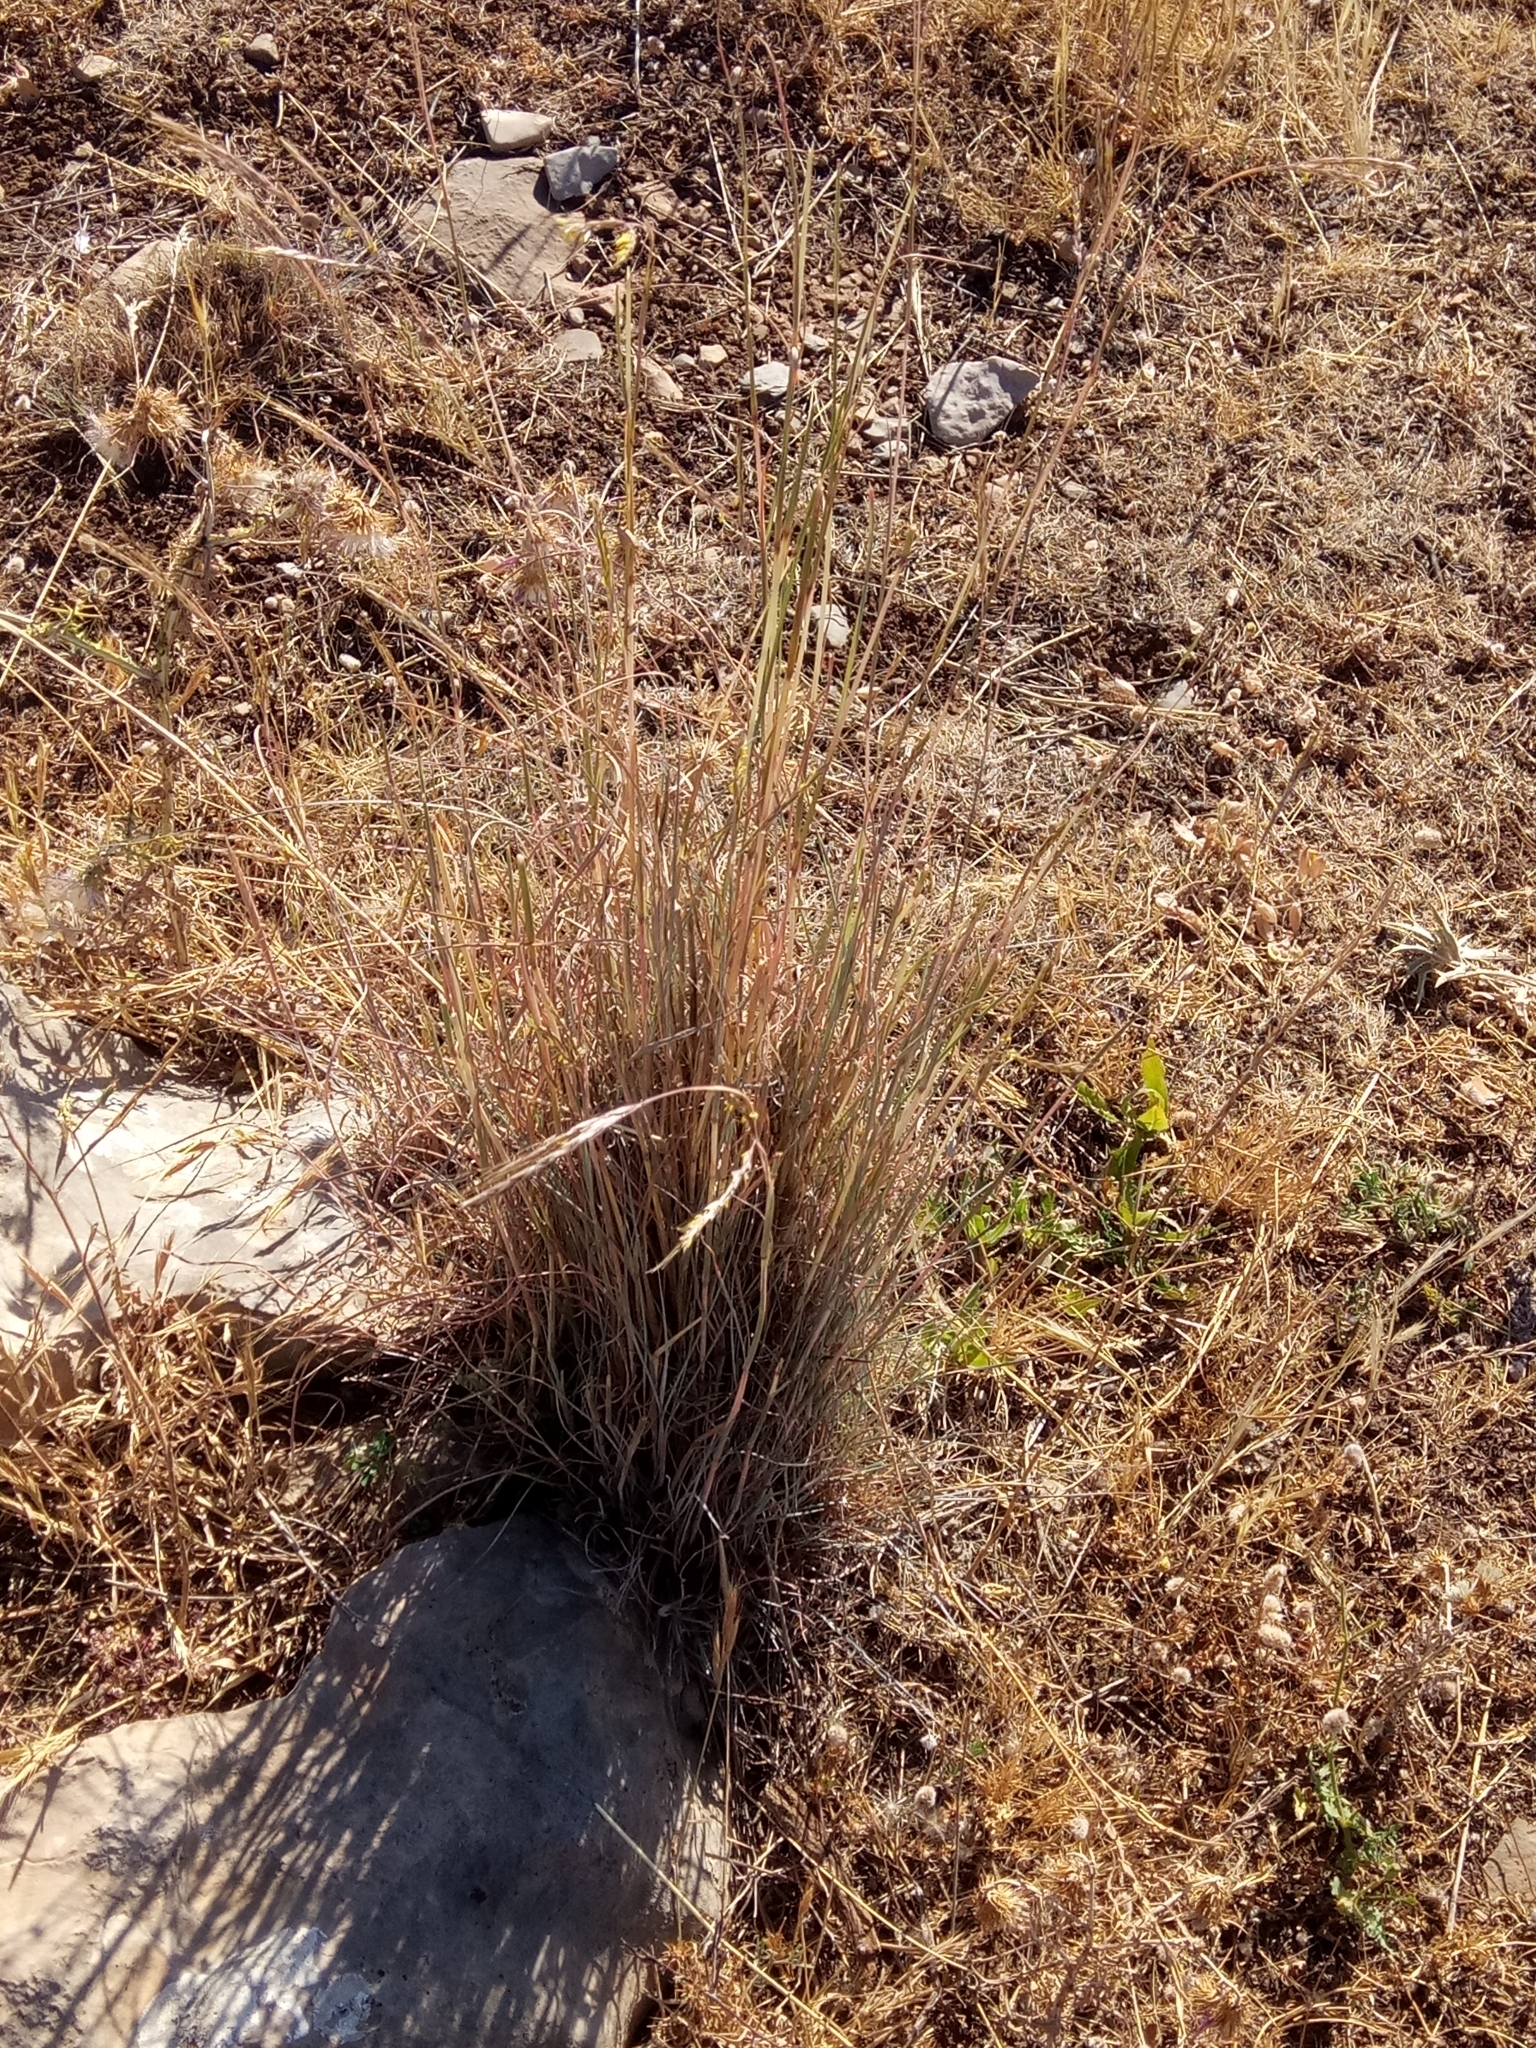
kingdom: Plantae
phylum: Tracheophyta
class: Liliopsida
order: Poales
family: Poaceae
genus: Hyparrhenia
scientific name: Hyparrhenia hirta
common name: Thatching grass
